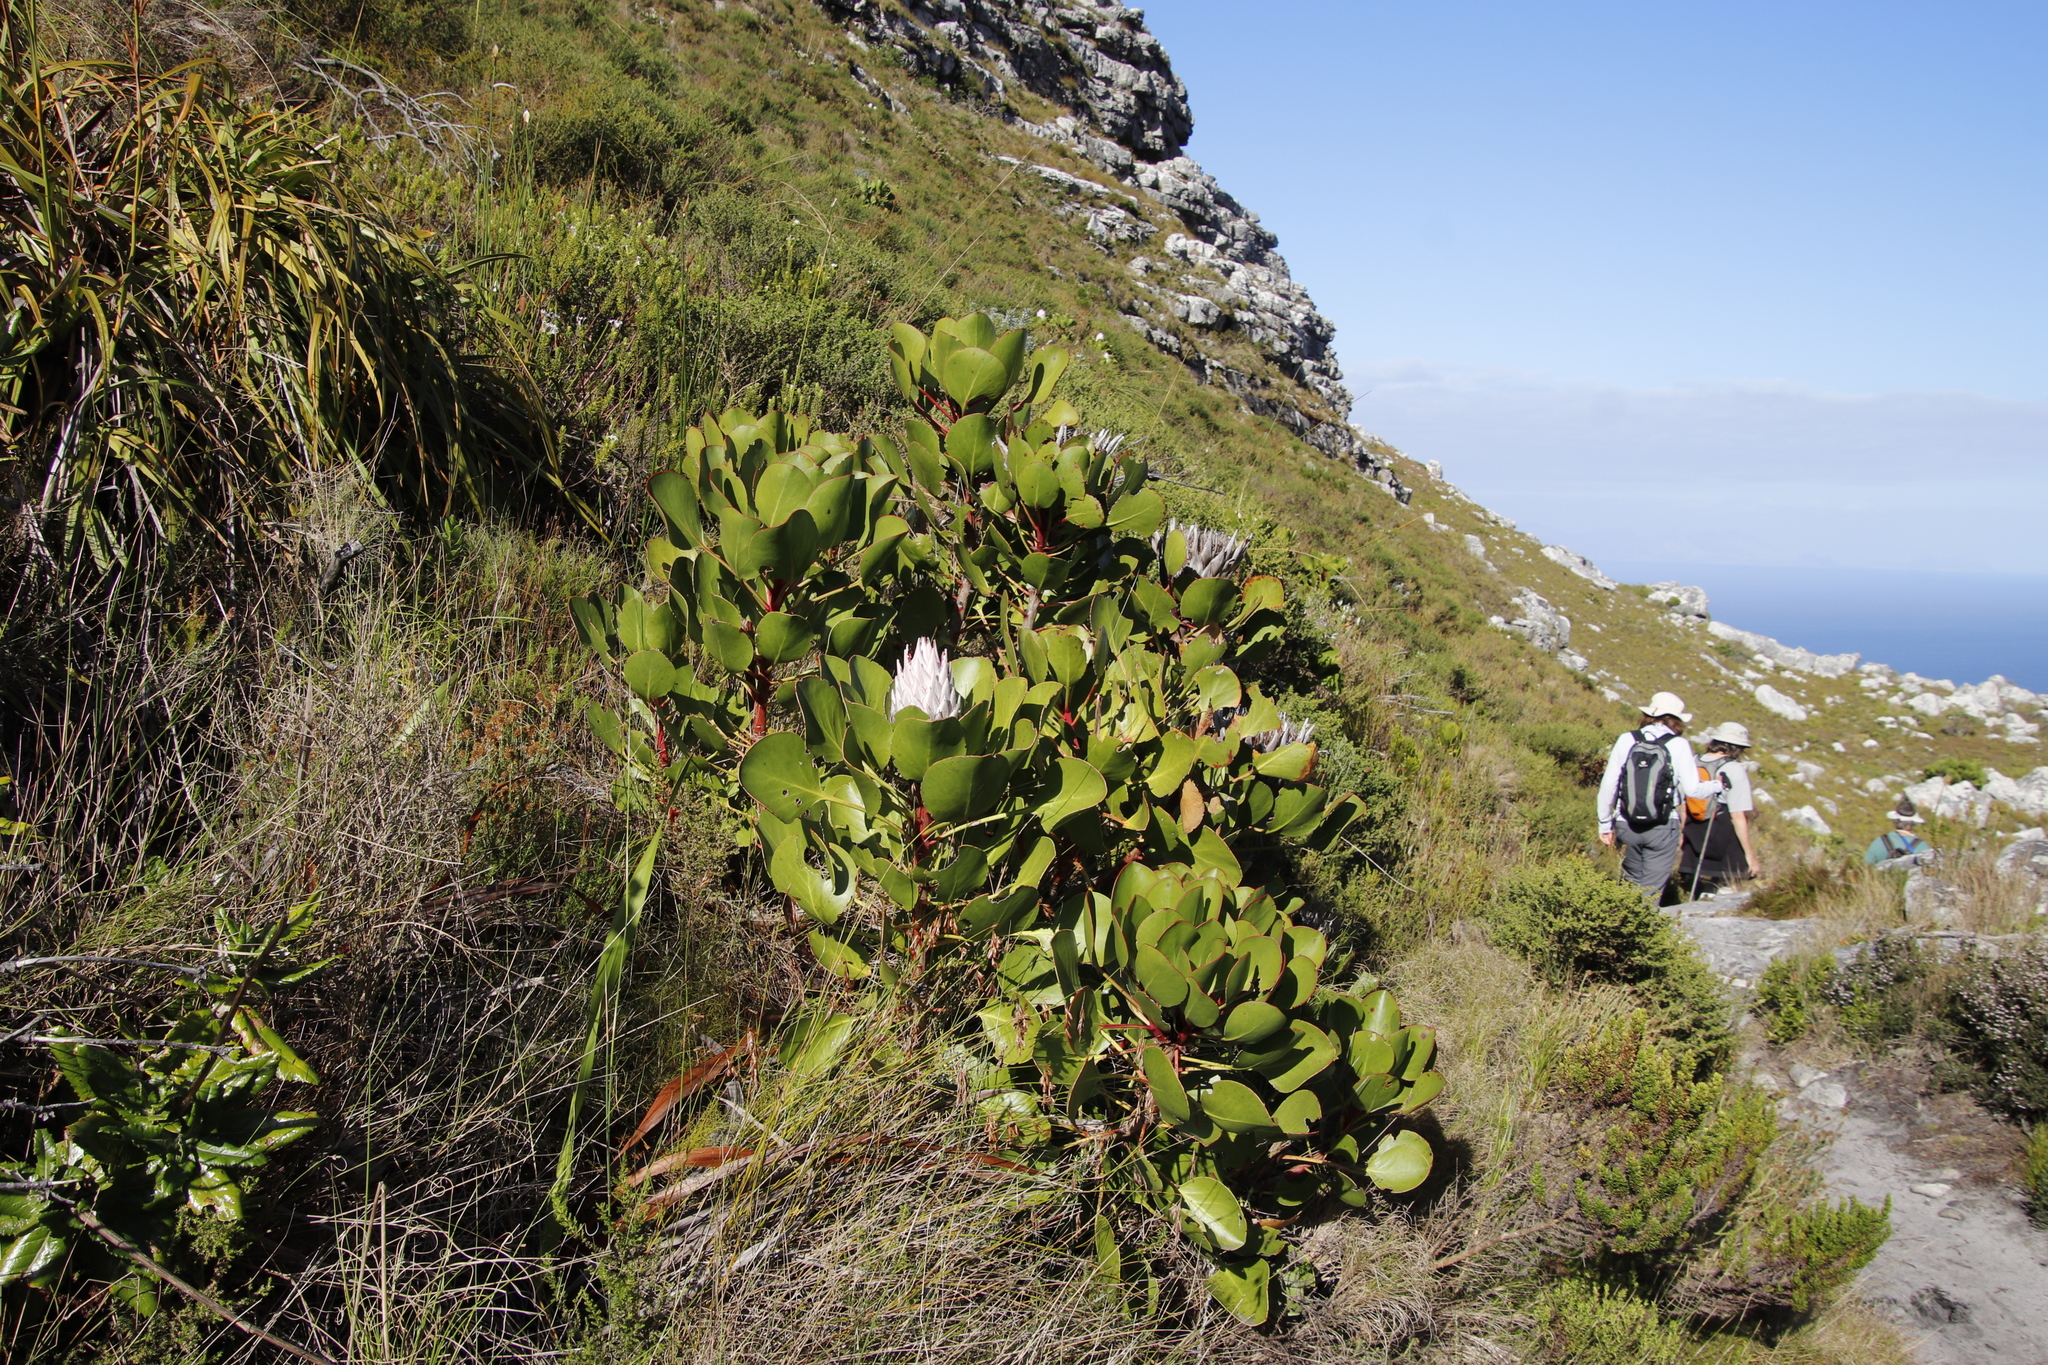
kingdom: Plantae
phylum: Tracheophyta
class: Magnoliopsida
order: Proteales
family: Proteaceae
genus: Protea
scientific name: Protea cynaroides
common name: King protea
